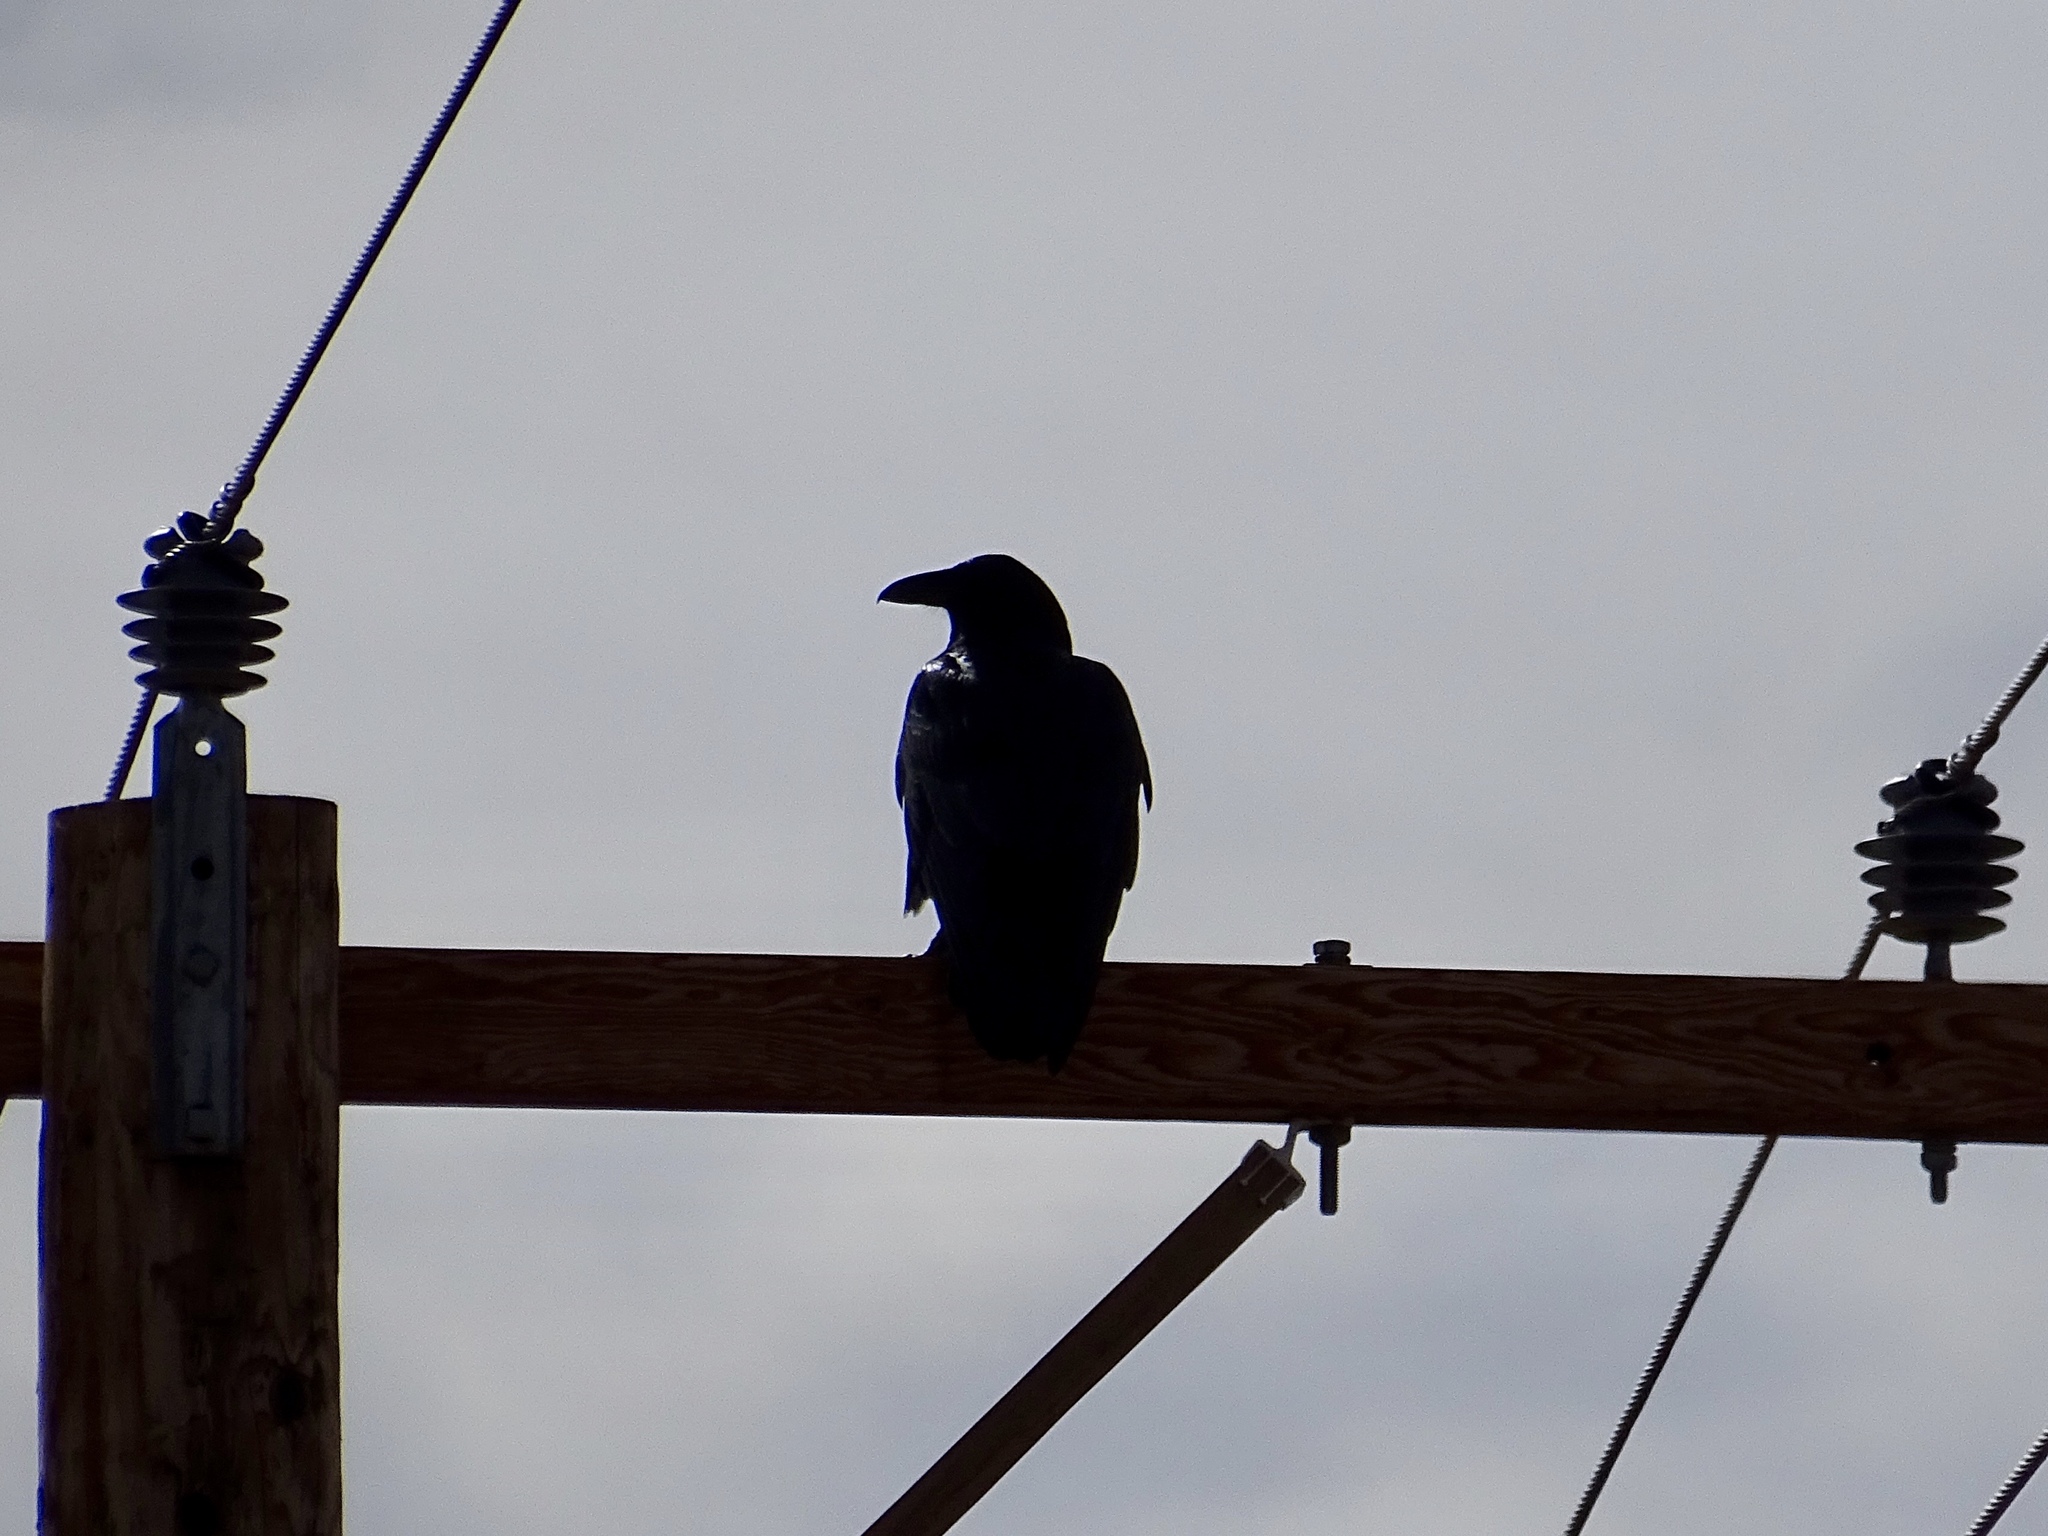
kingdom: Animalia
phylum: Chordata
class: Aves
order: Passeriformes
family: Corvidae
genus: Corvus
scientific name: Corvus corax
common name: Common raven
